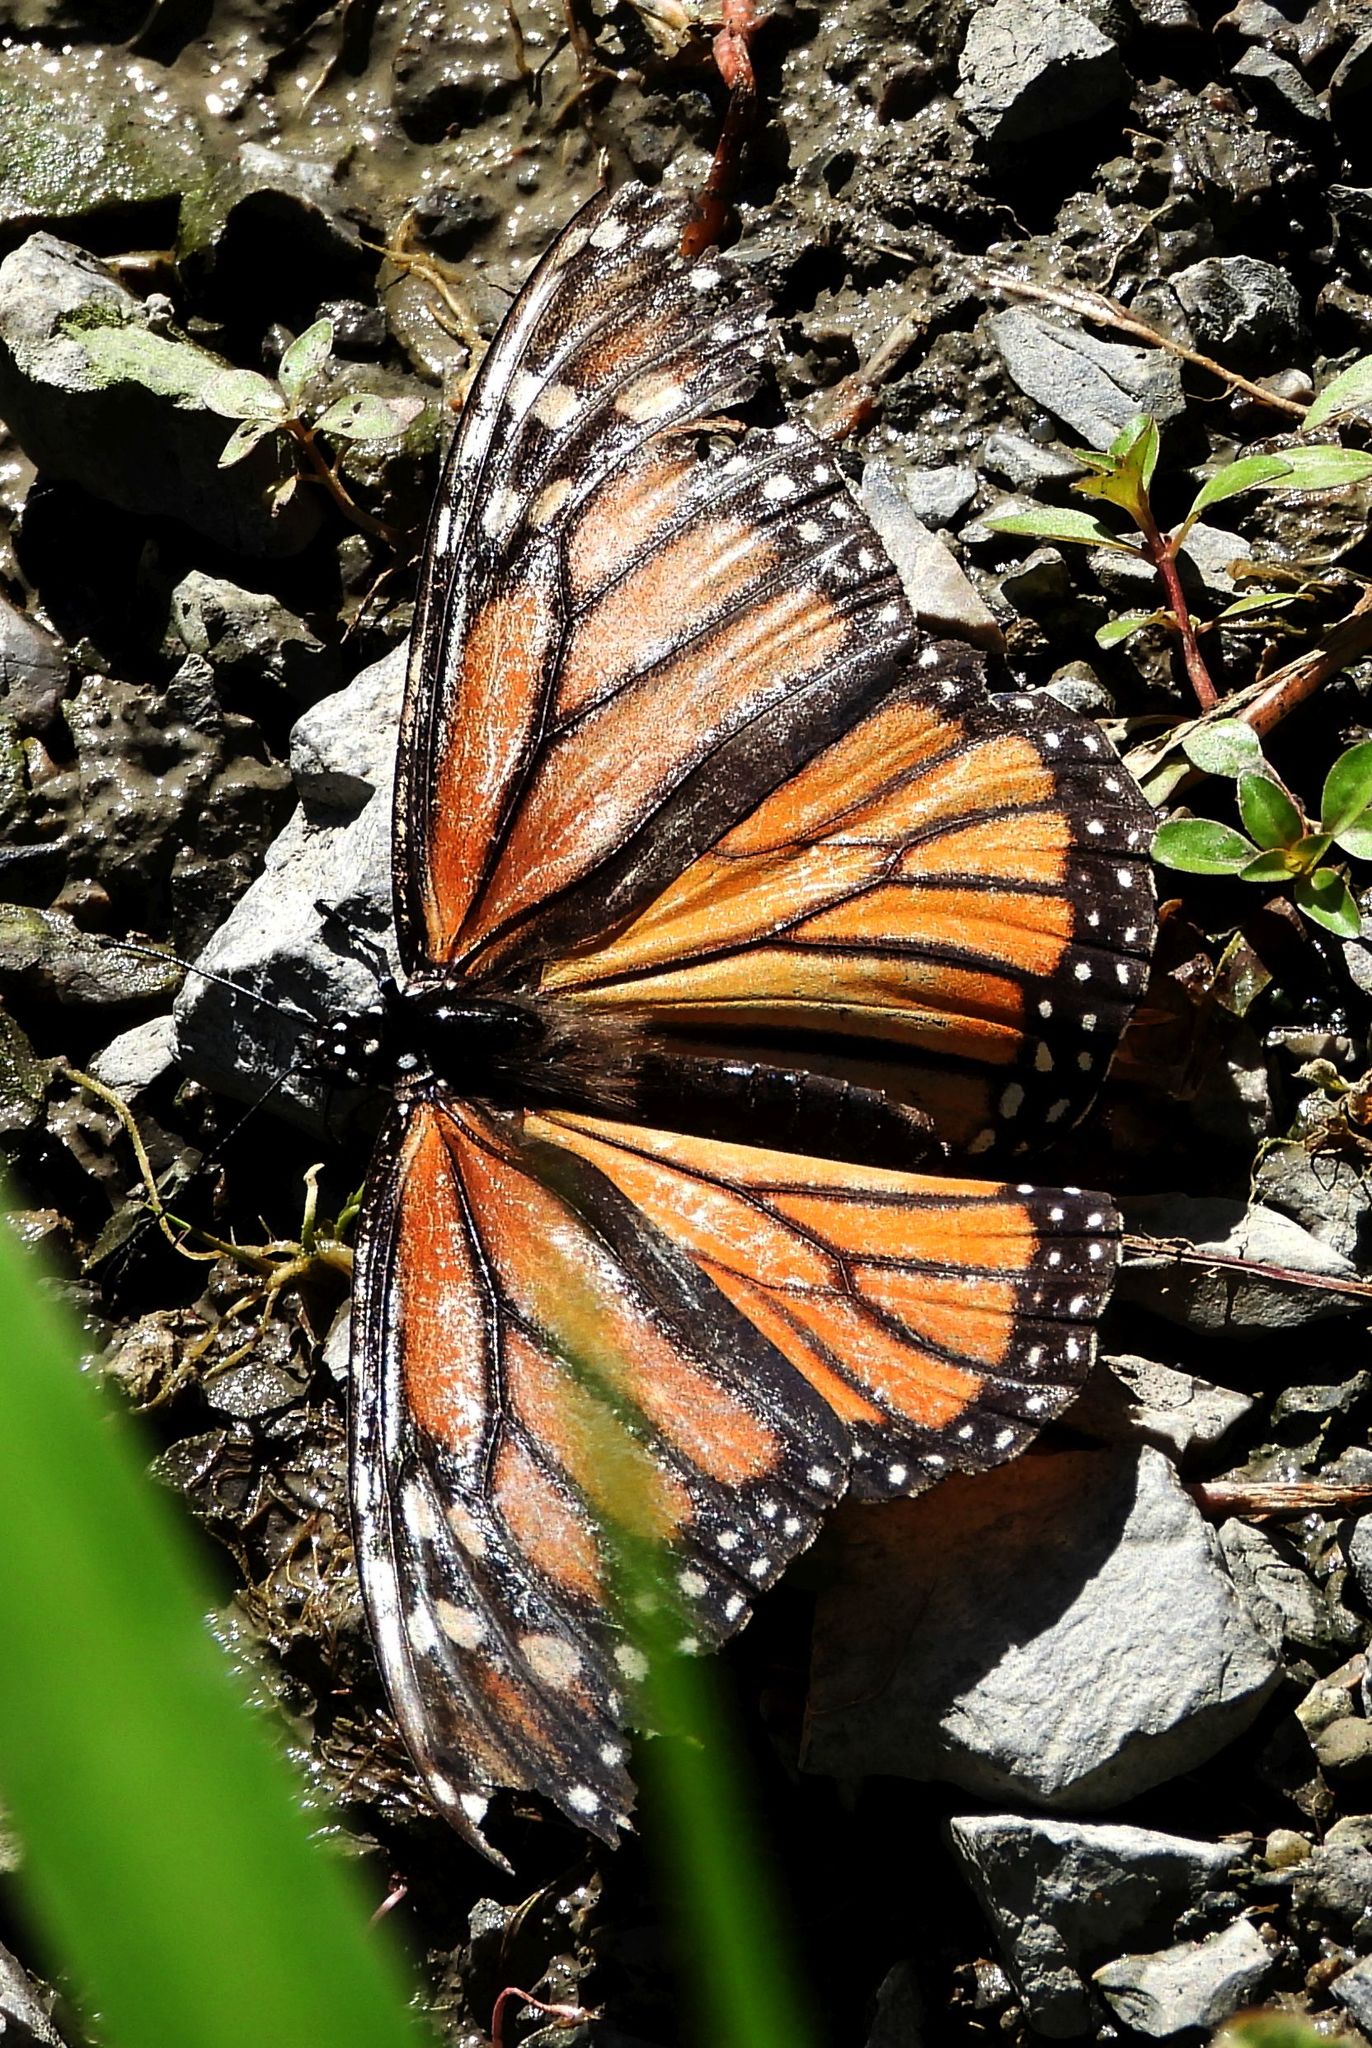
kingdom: Animalia
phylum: Arthropoda
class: Insecta
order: Lepidoptera
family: Nymphalidae
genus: Danaus
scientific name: Danaus plexippus
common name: Monarch
